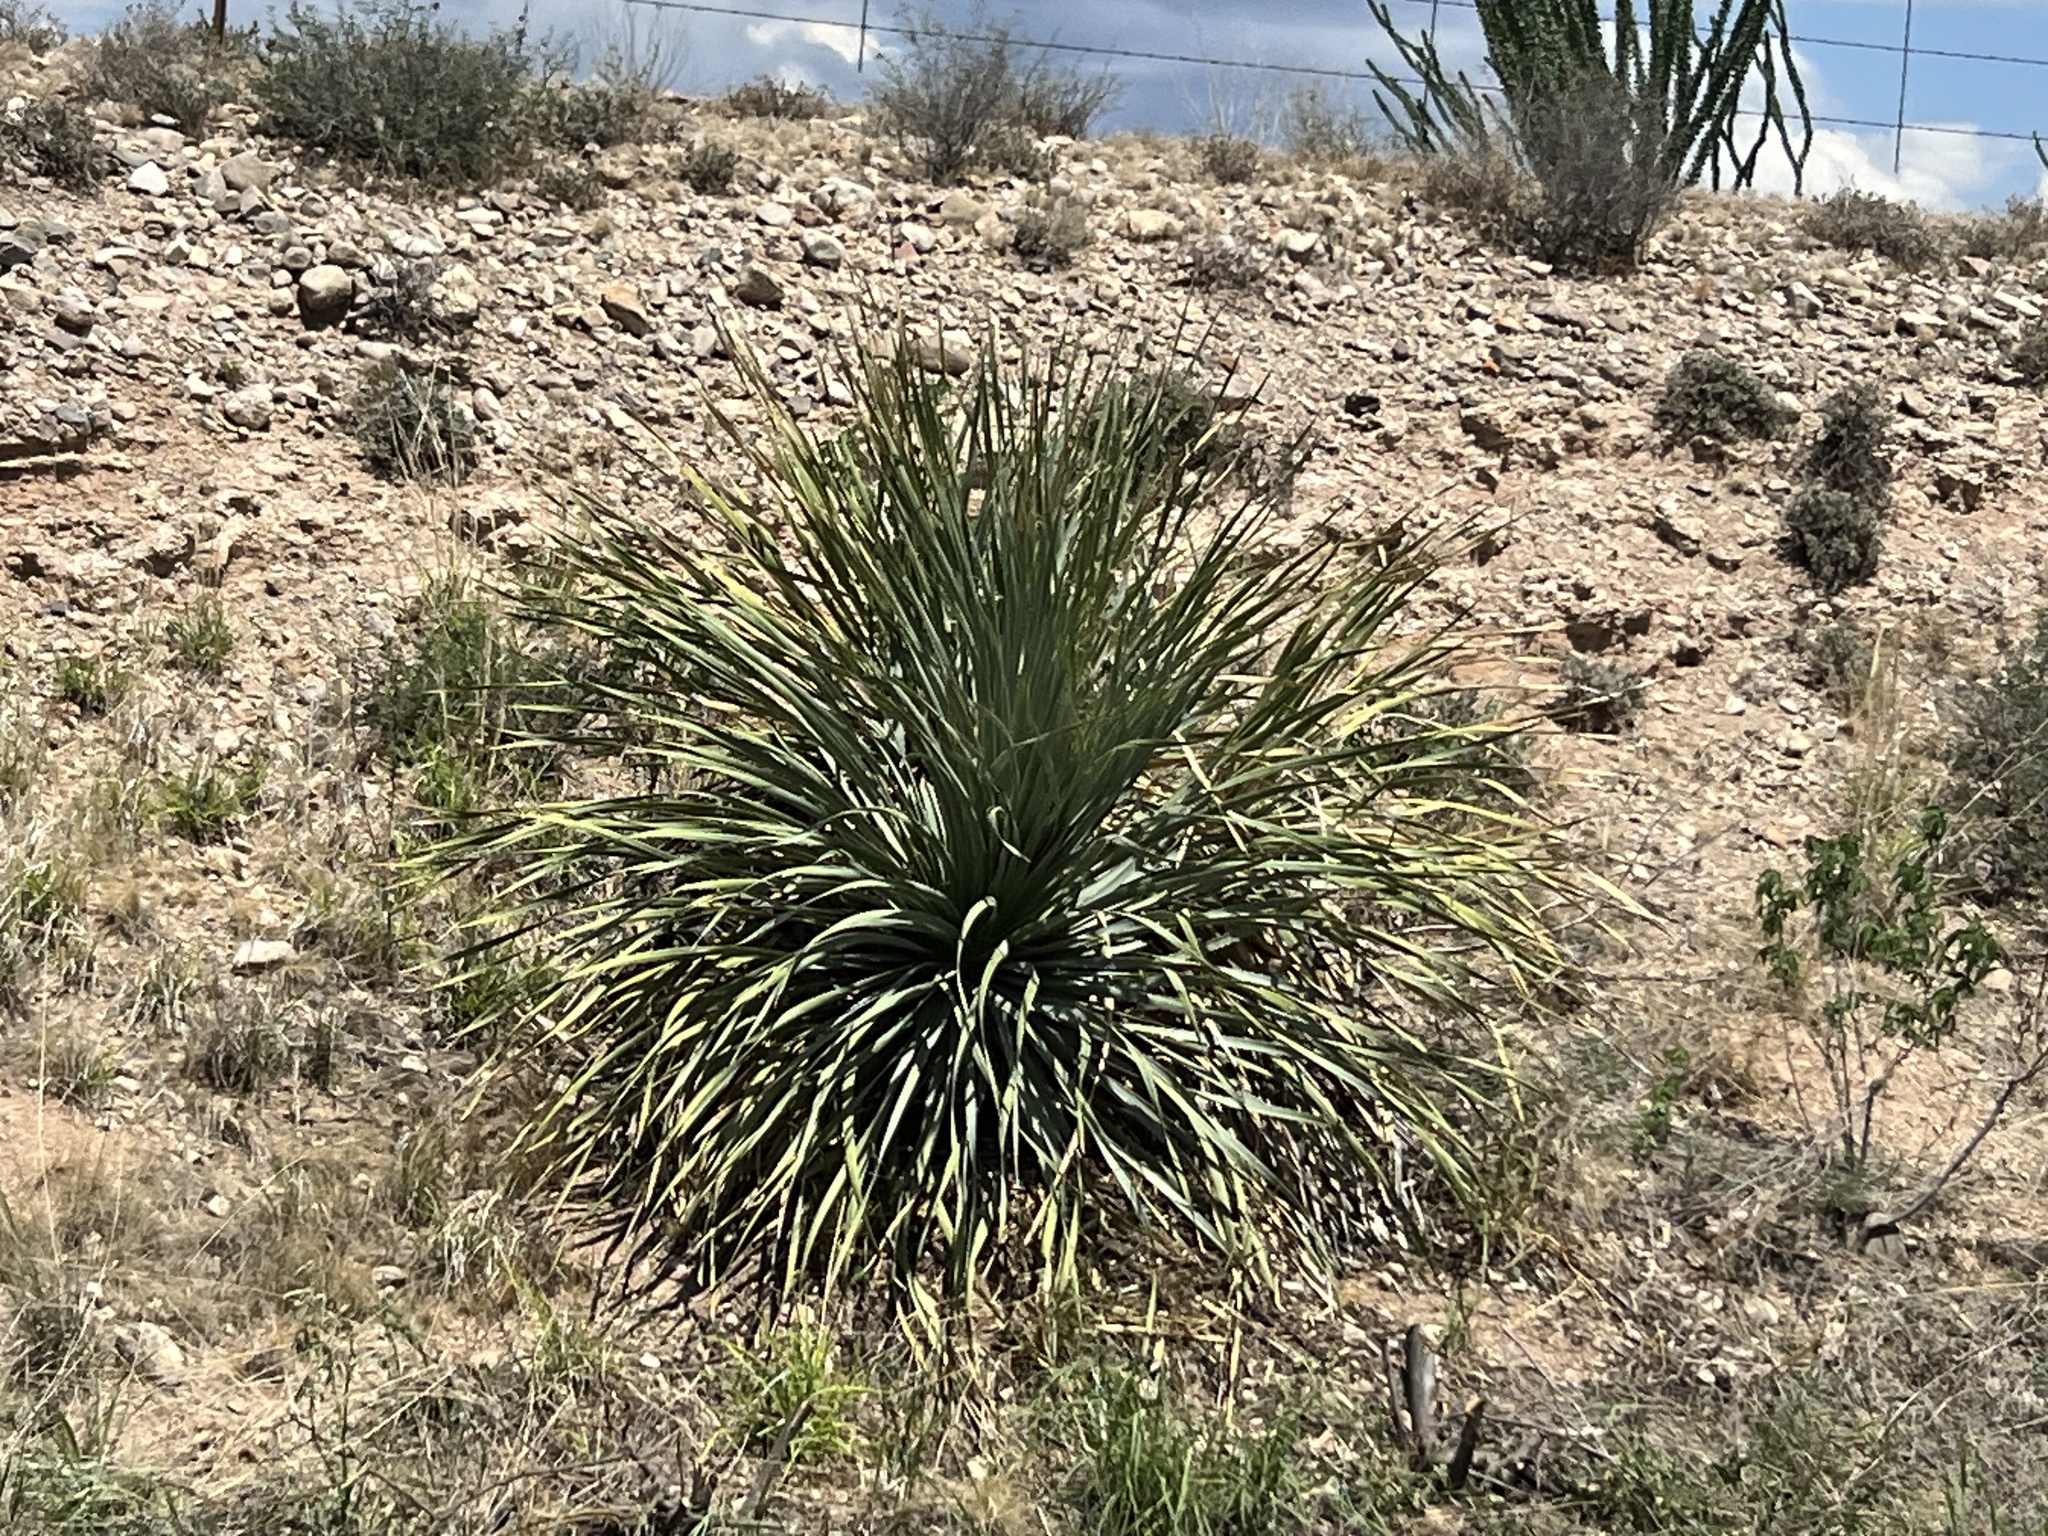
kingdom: Plantae
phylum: Tracheophyta
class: Liliopsida
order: Asparagales
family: Asparagaceae
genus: Dasylirion
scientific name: Dasylirion wheeleri
